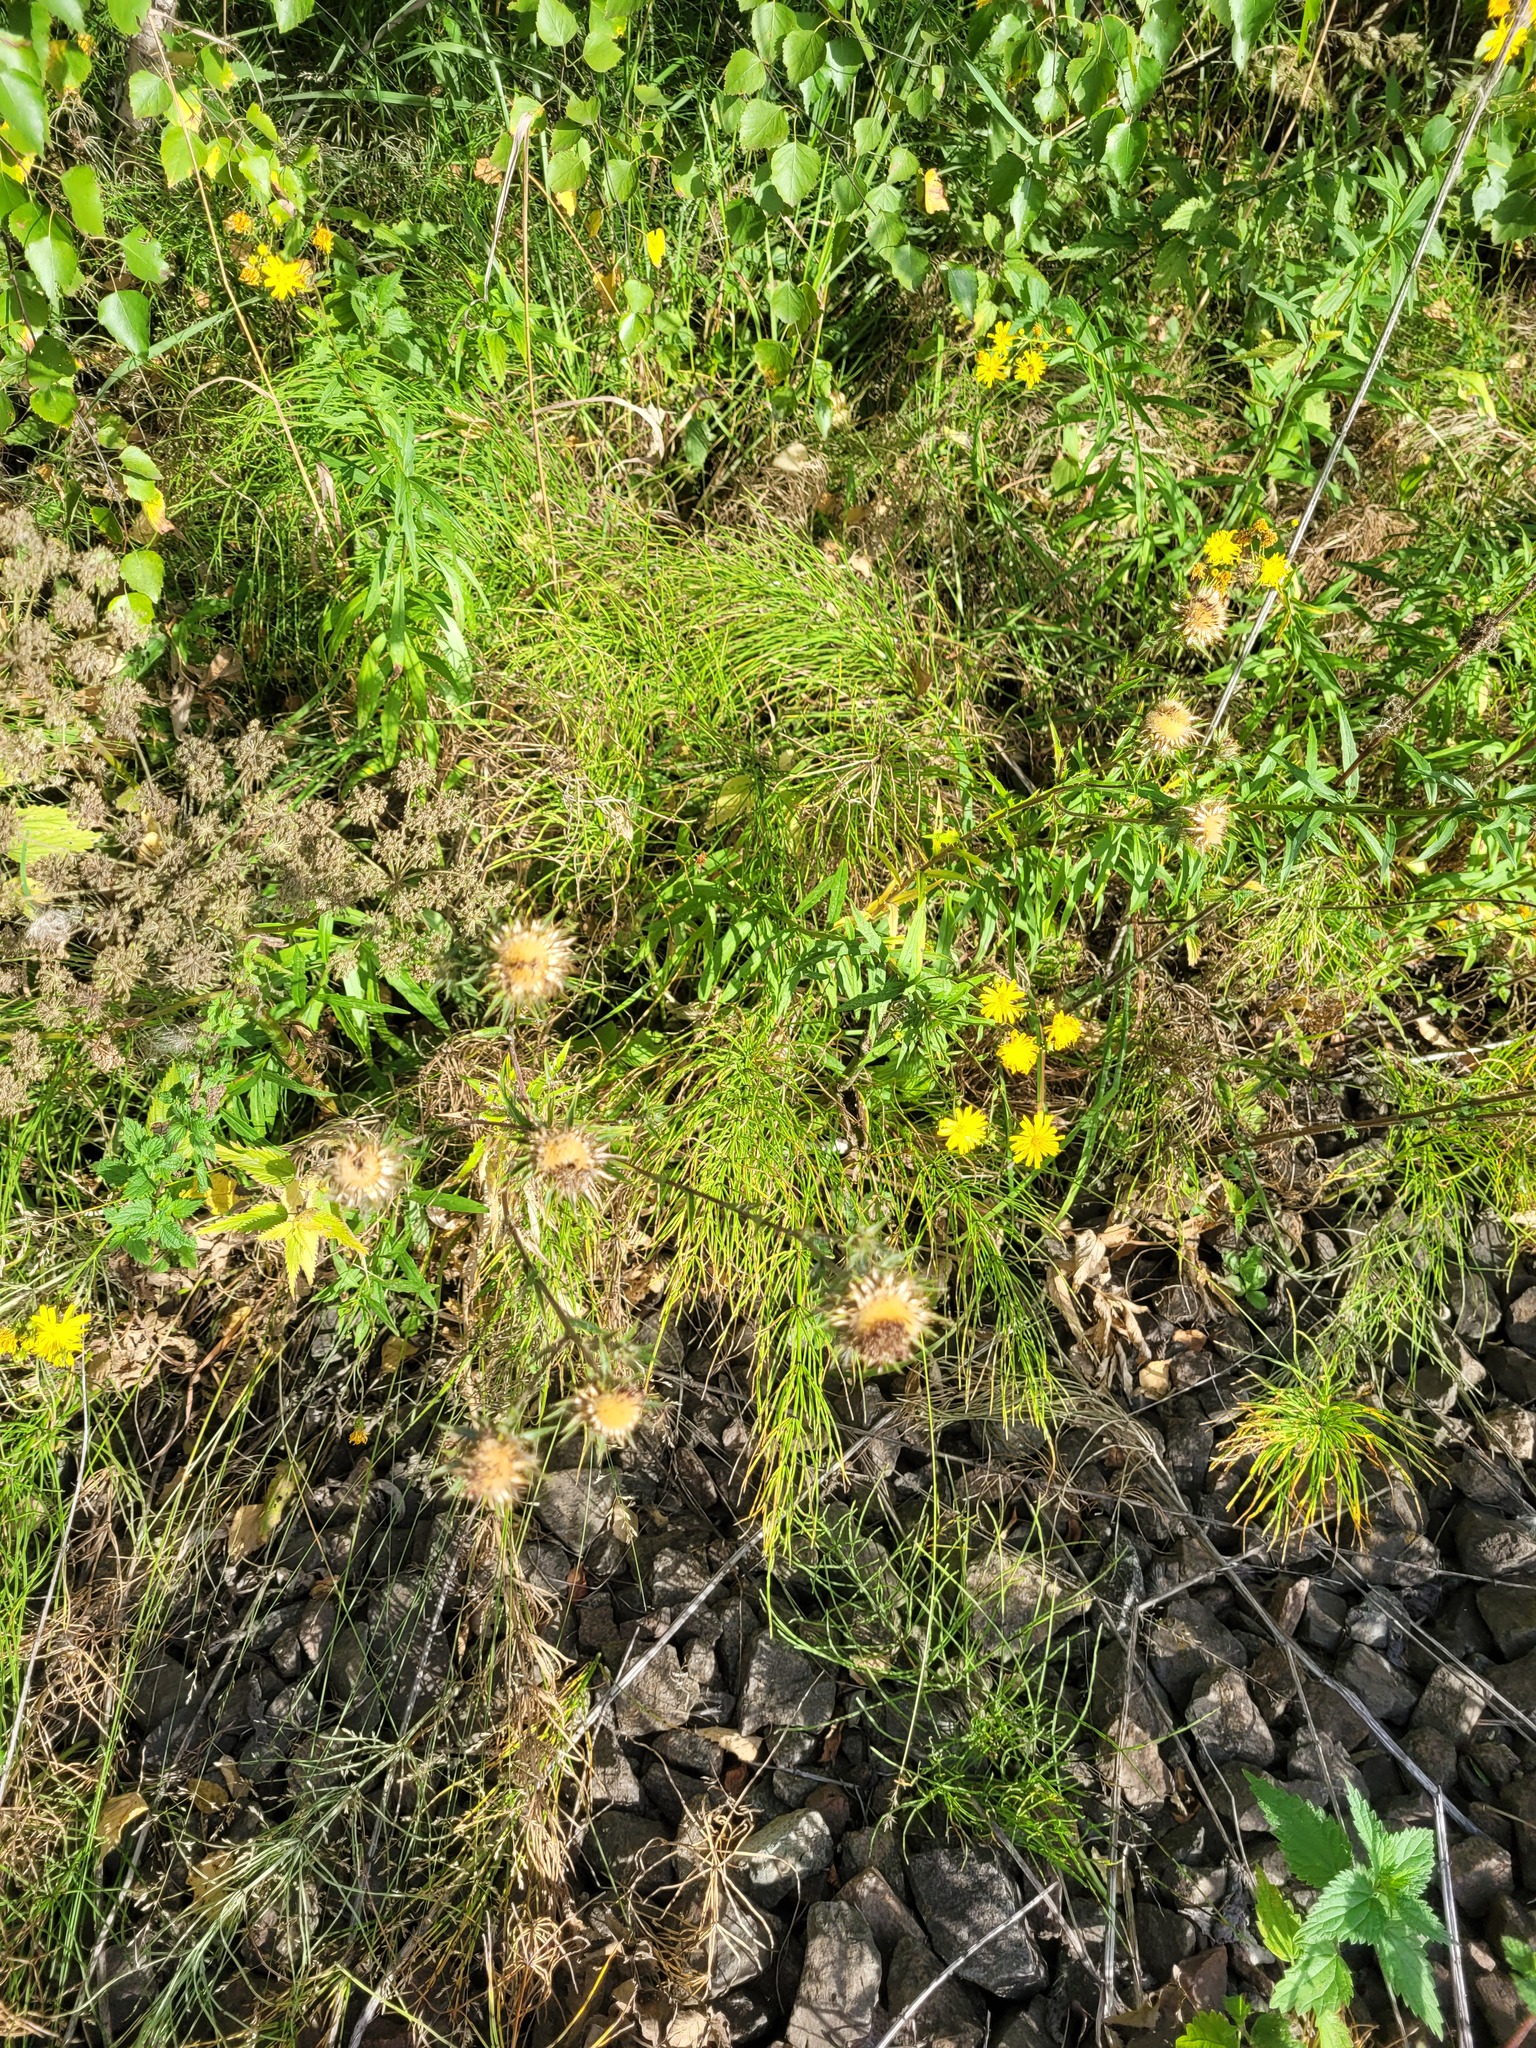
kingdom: Plantae
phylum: Tracheophyta
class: Magnoliopsida
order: Asterales
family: Asteraceae
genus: Carlina
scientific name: Carlina biebersteinii
